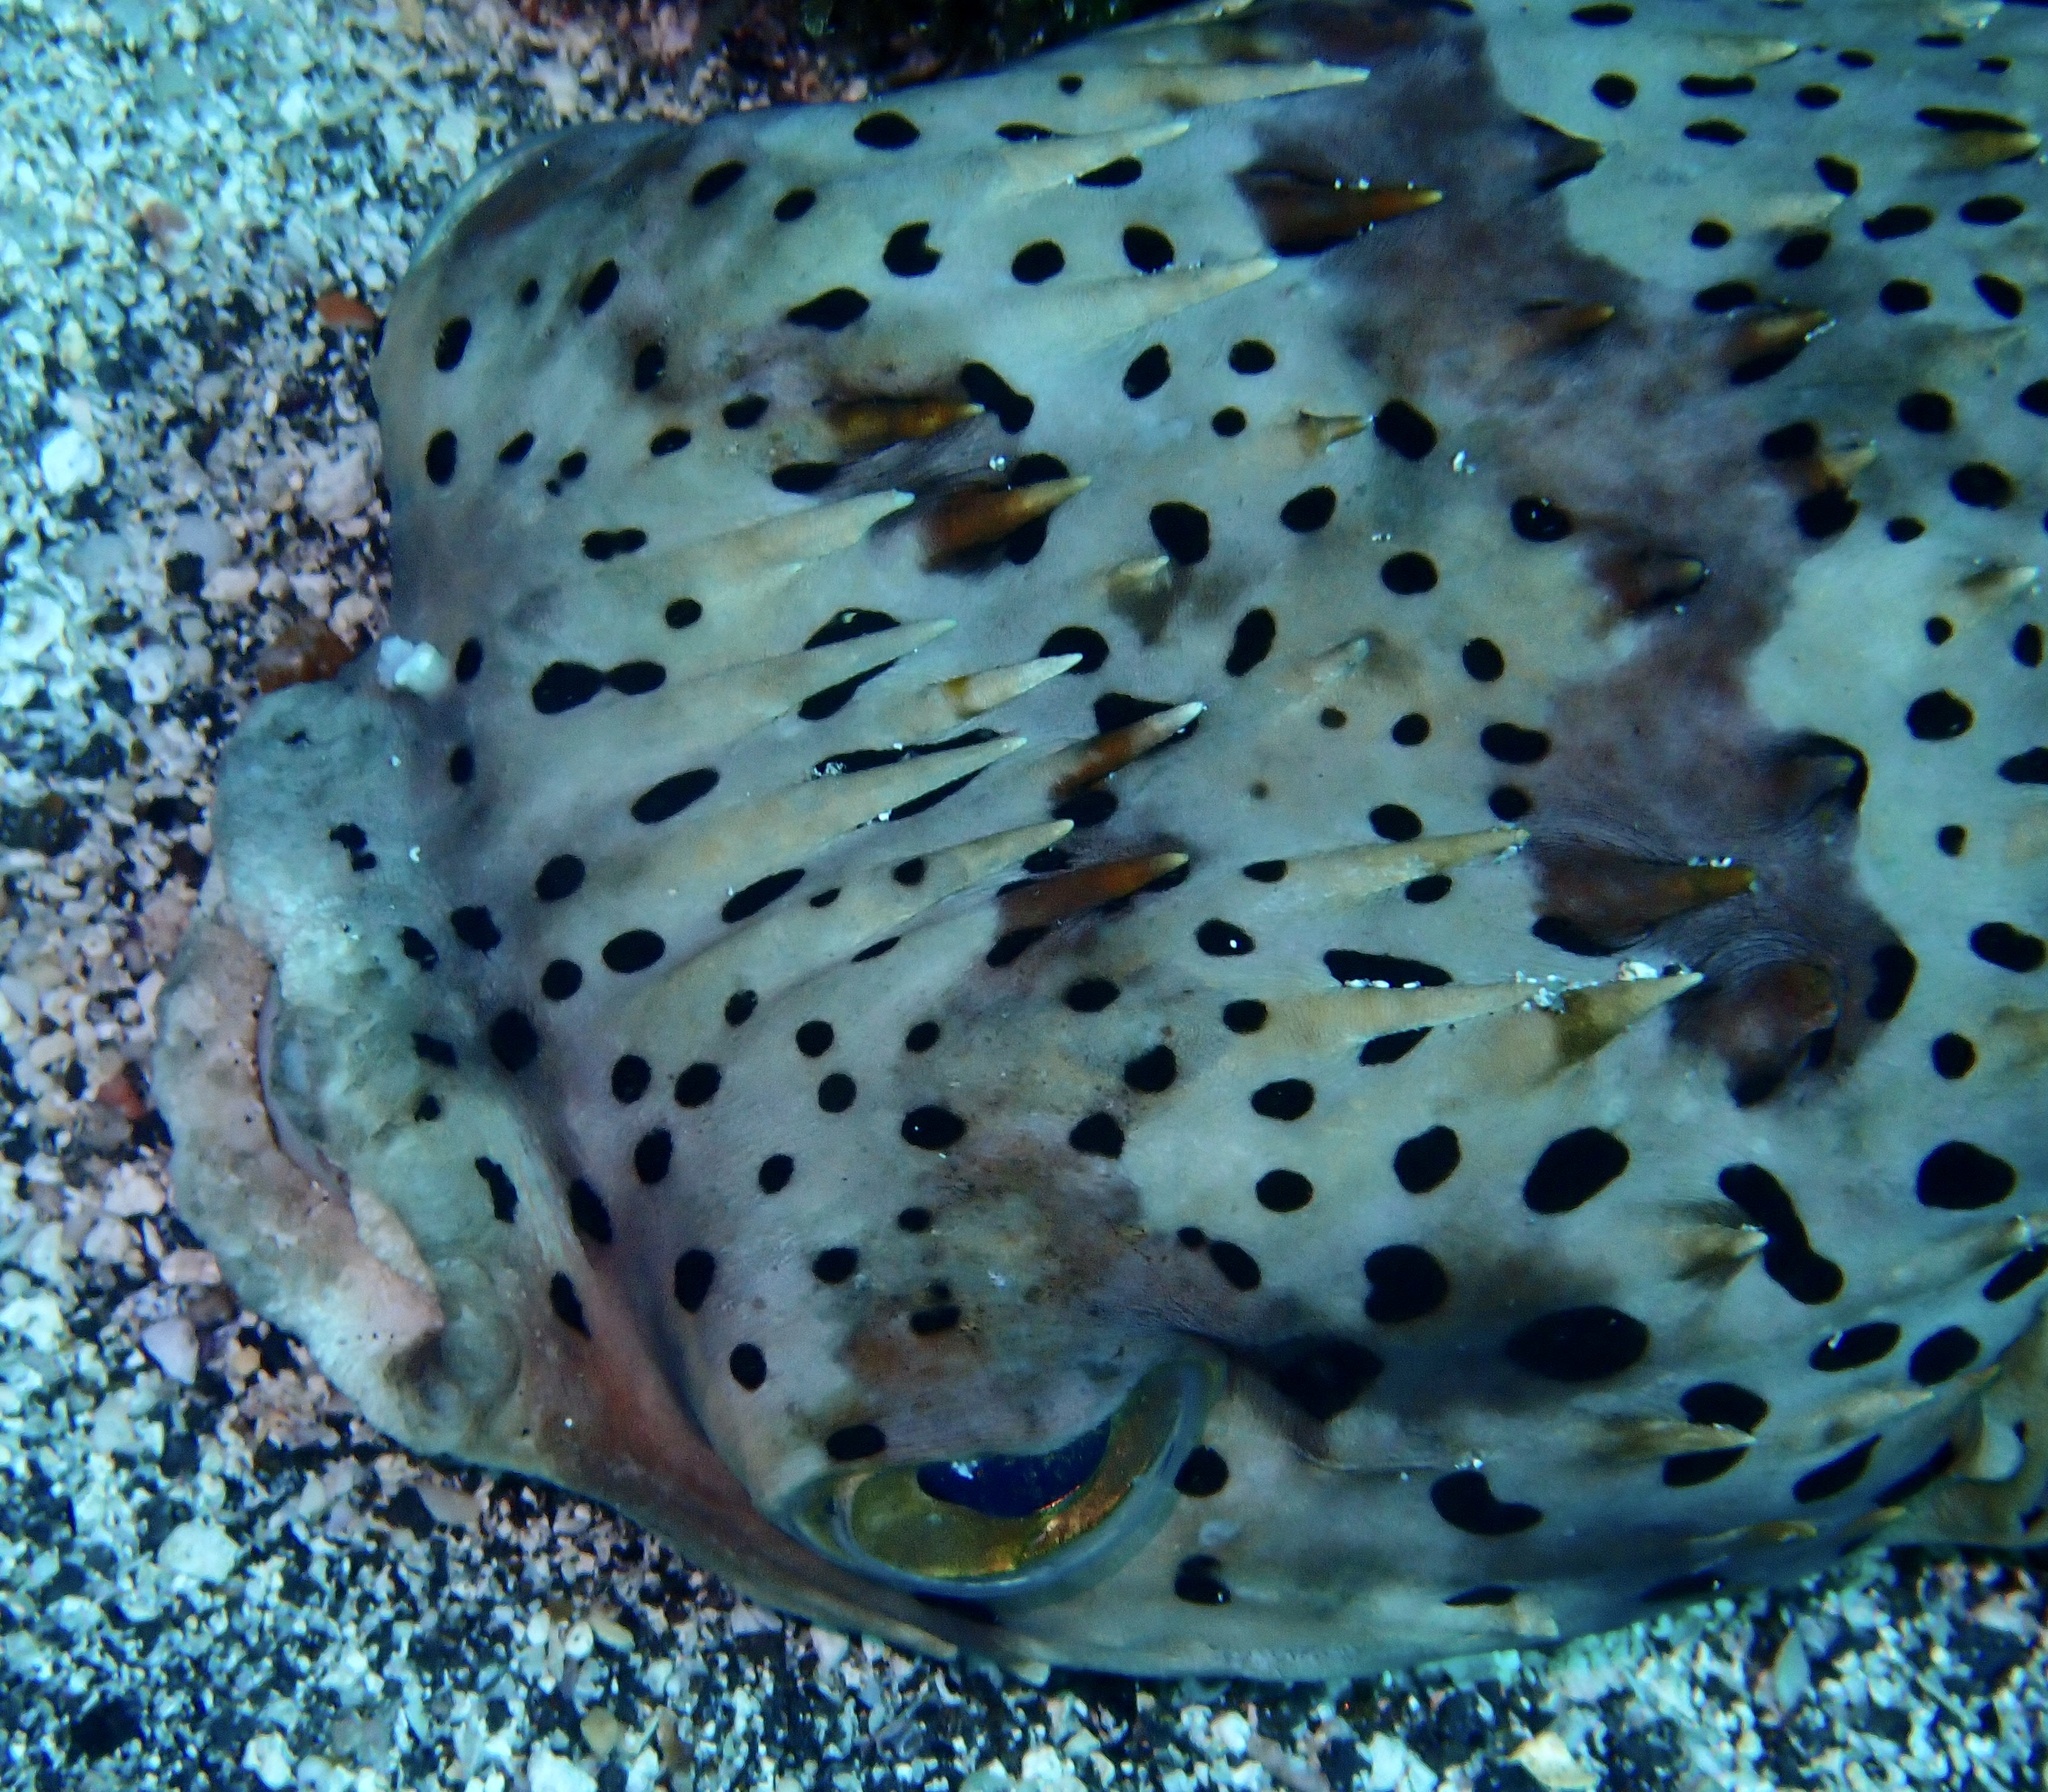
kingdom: Animalia
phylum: Chordata
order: Tetraodontiformes
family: Diodontidae
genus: Diodon
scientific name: Diodon holocanthus
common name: Balloonfish
